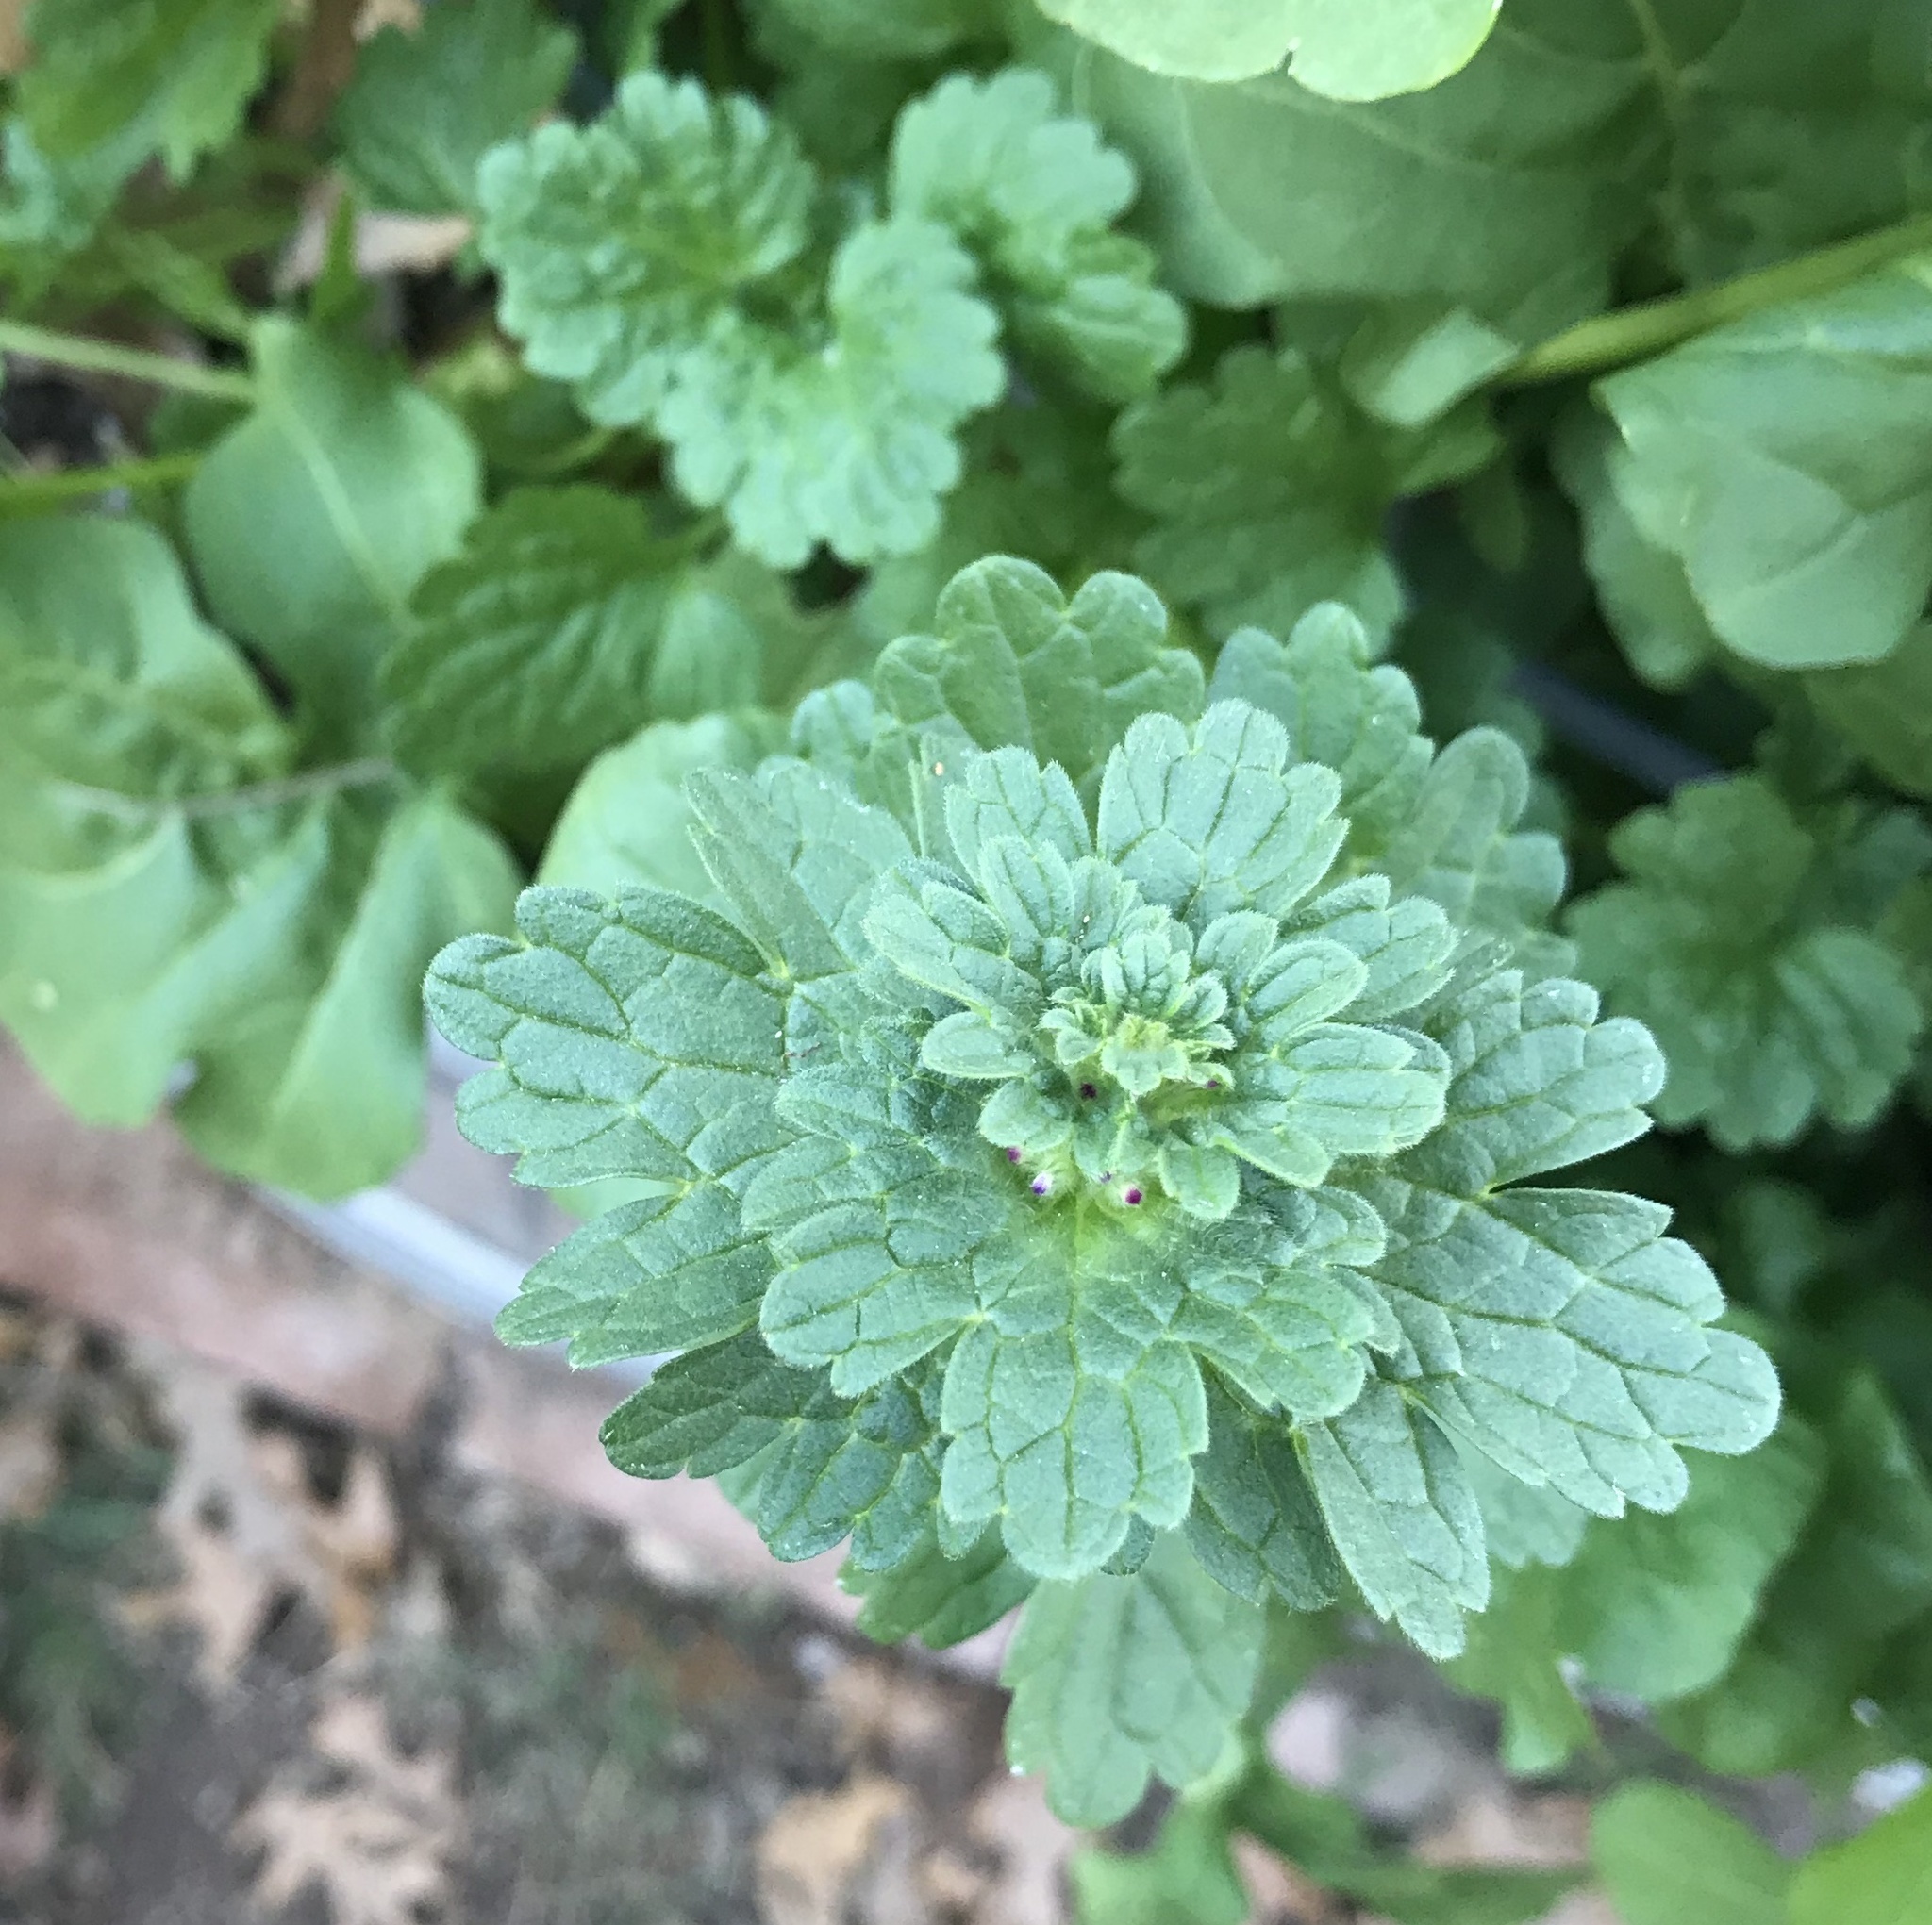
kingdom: Plantae
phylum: Tracheophyta
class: Magnoliopsida
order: Lamiales
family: Lamiaceae
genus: Lamium
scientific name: Lamium amplexicaule
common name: Henbit dead-nettle
